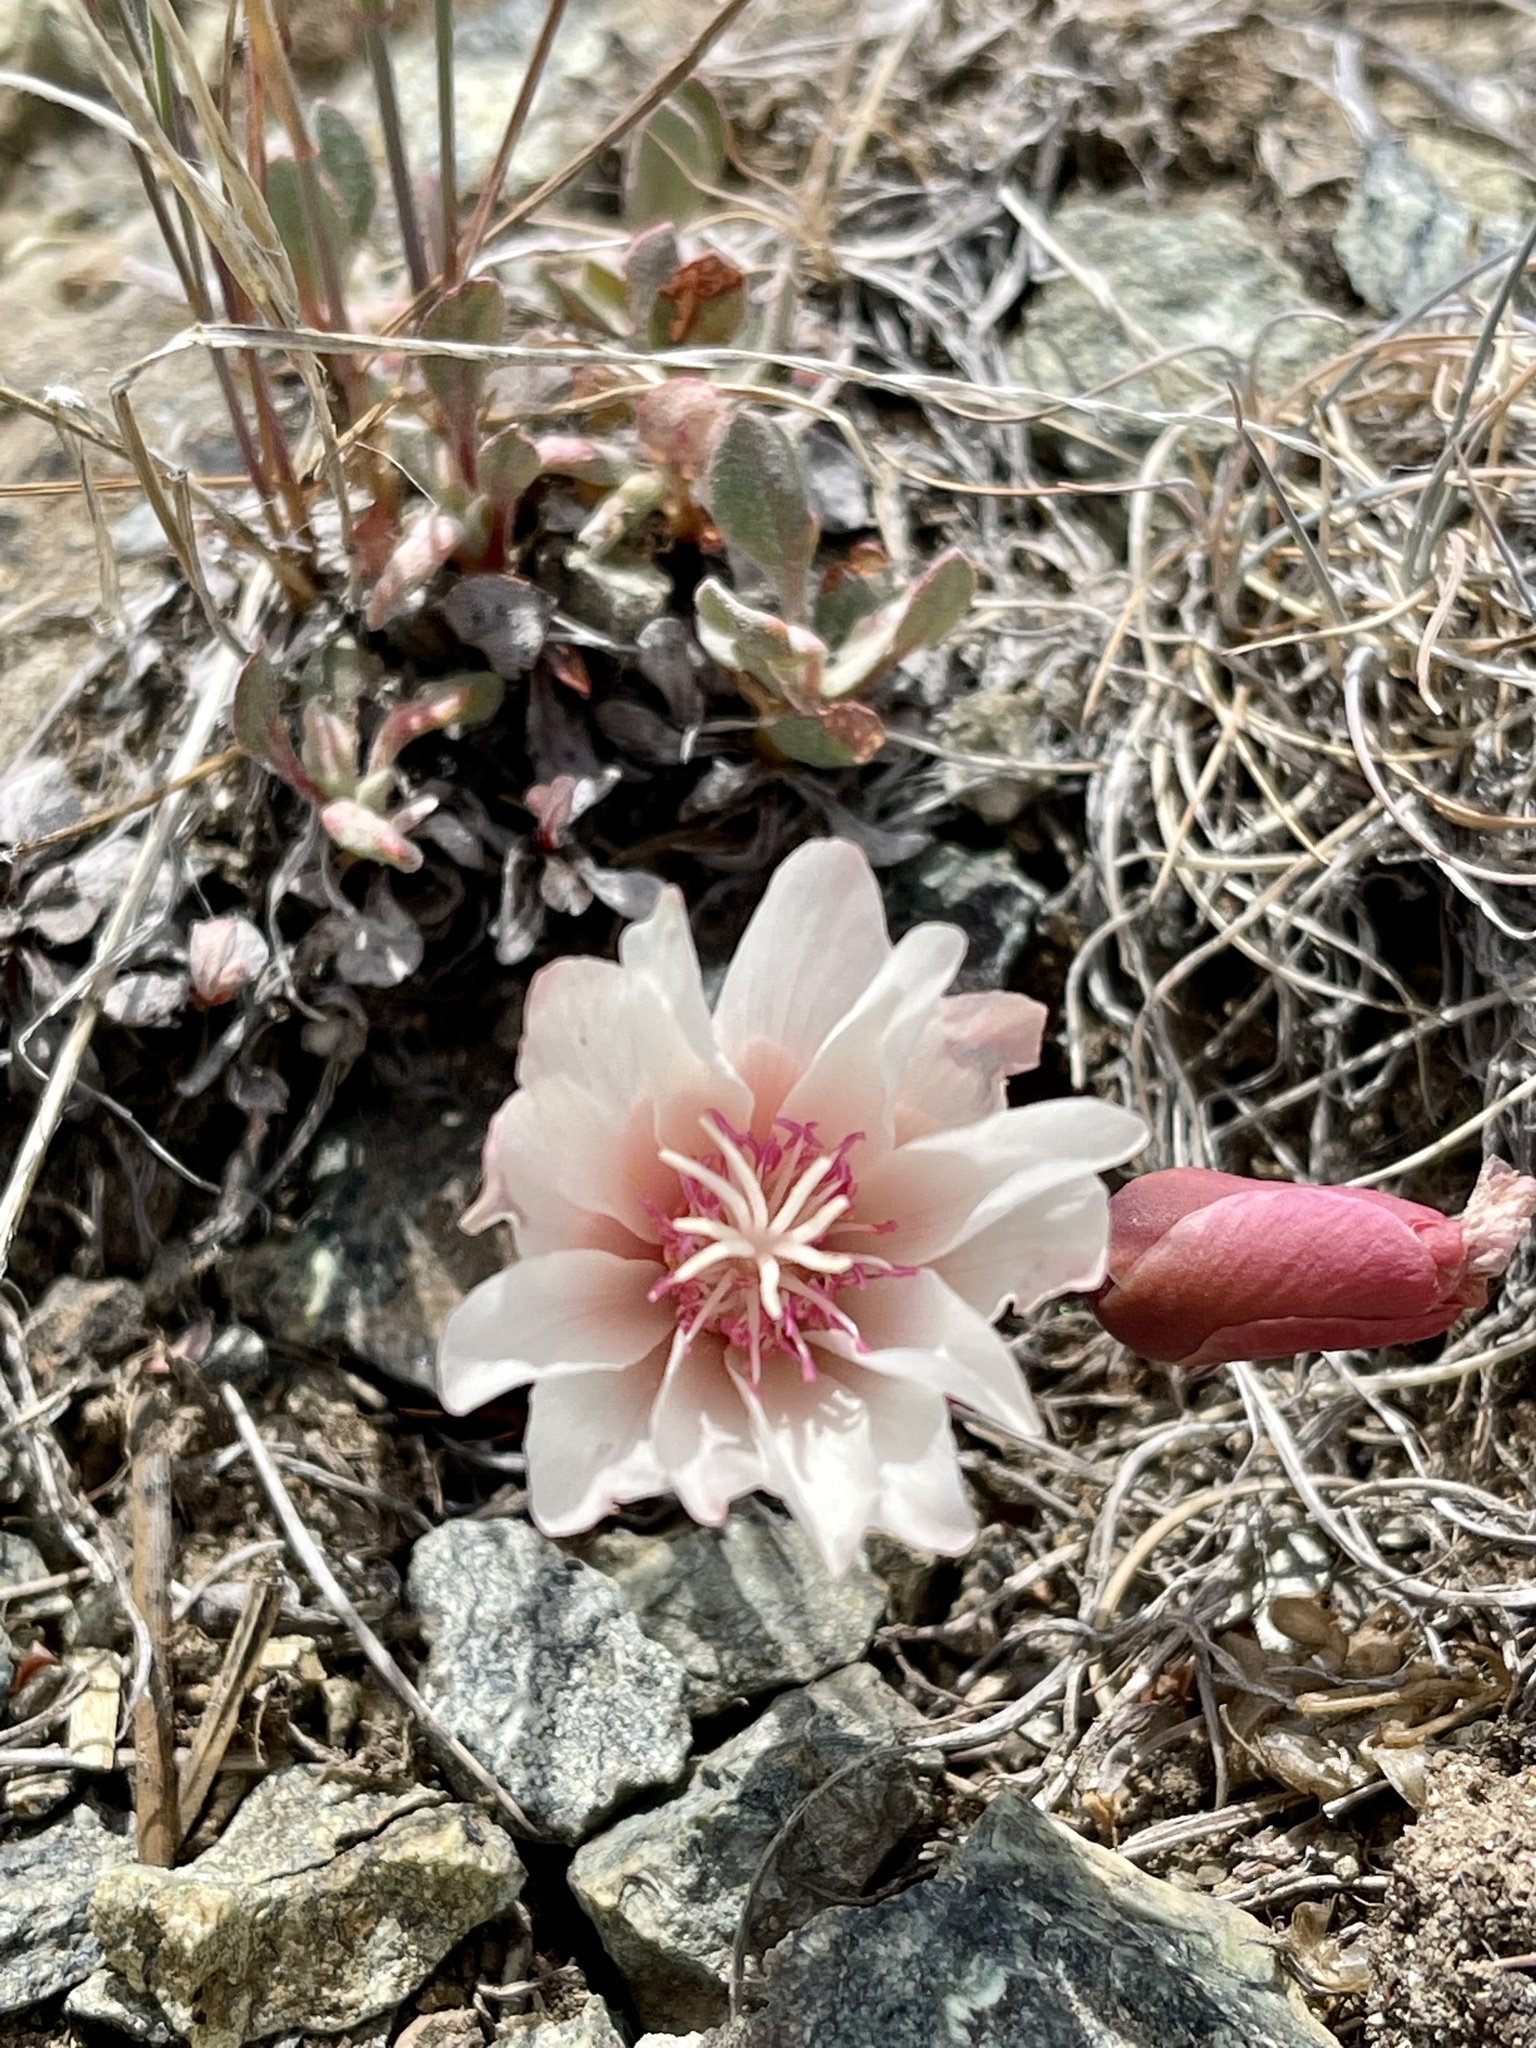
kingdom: Plantae
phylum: Tracheophyta
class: Magnoliopsida
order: Caryophyllales
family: Montiaceae
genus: Lewisia
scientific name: Lewisia rediviva
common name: Bitter-root
